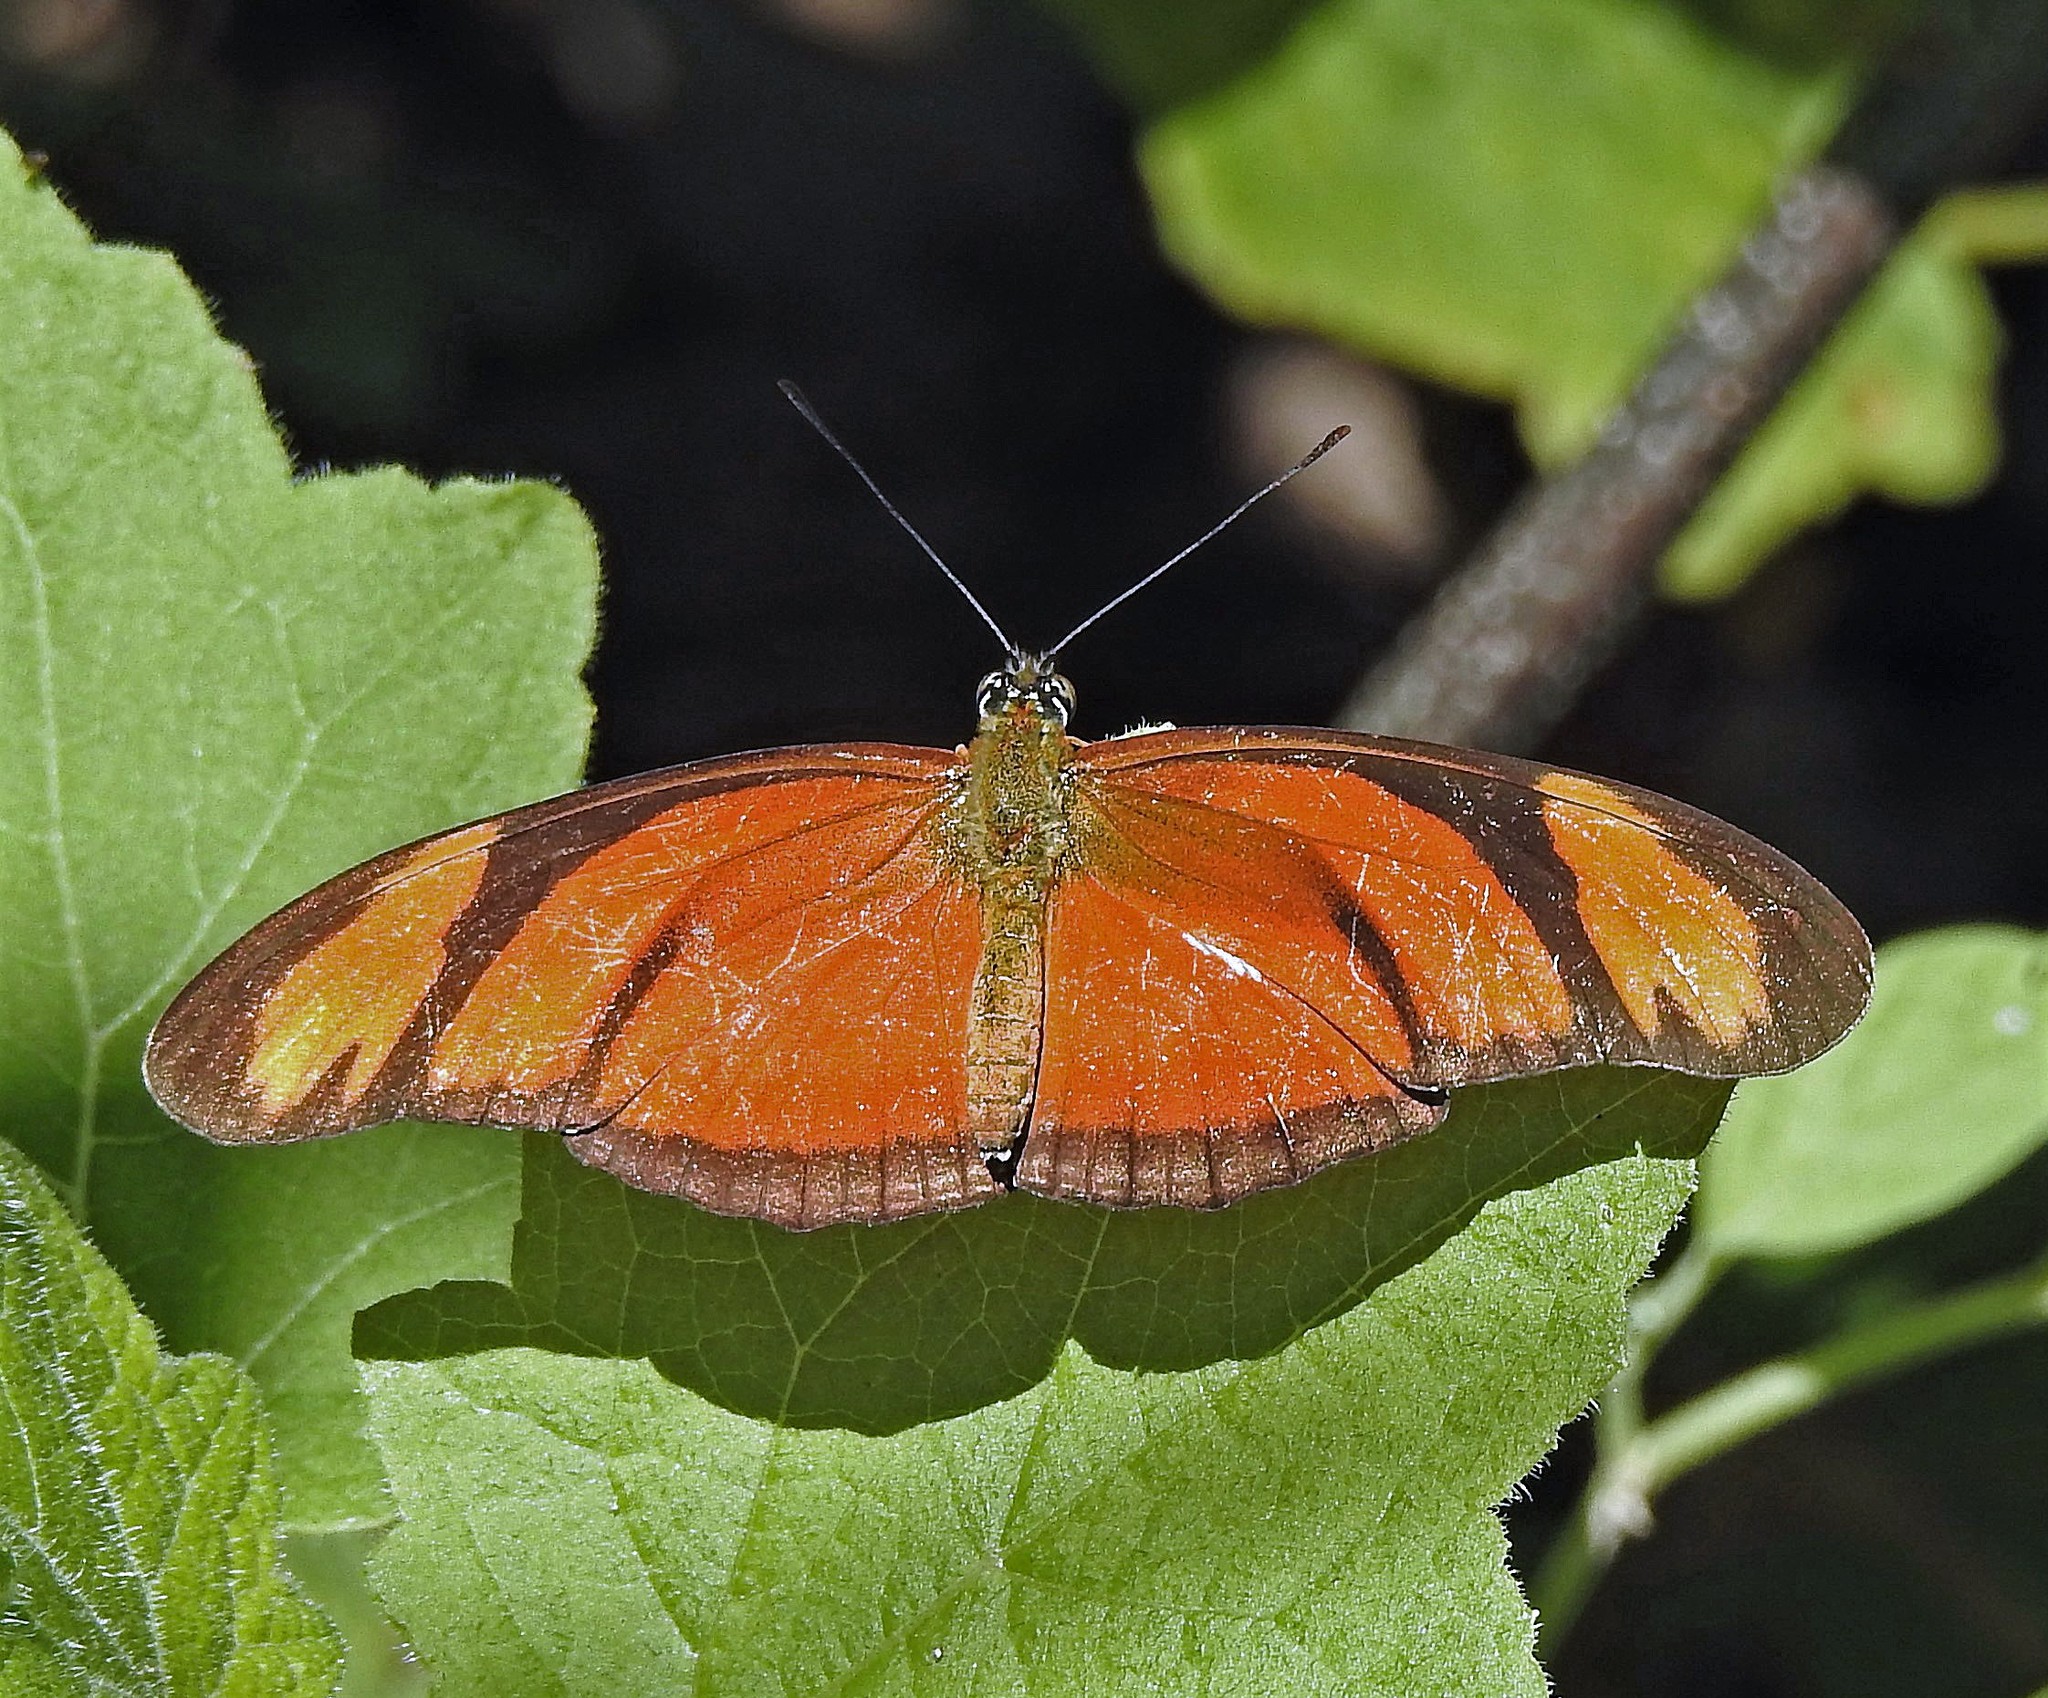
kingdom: Animalia
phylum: Arthropoda
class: Insecta
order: Lepidoptera
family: Nymphalidae
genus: Dryas
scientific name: Dryas iulia
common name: Flambeau
